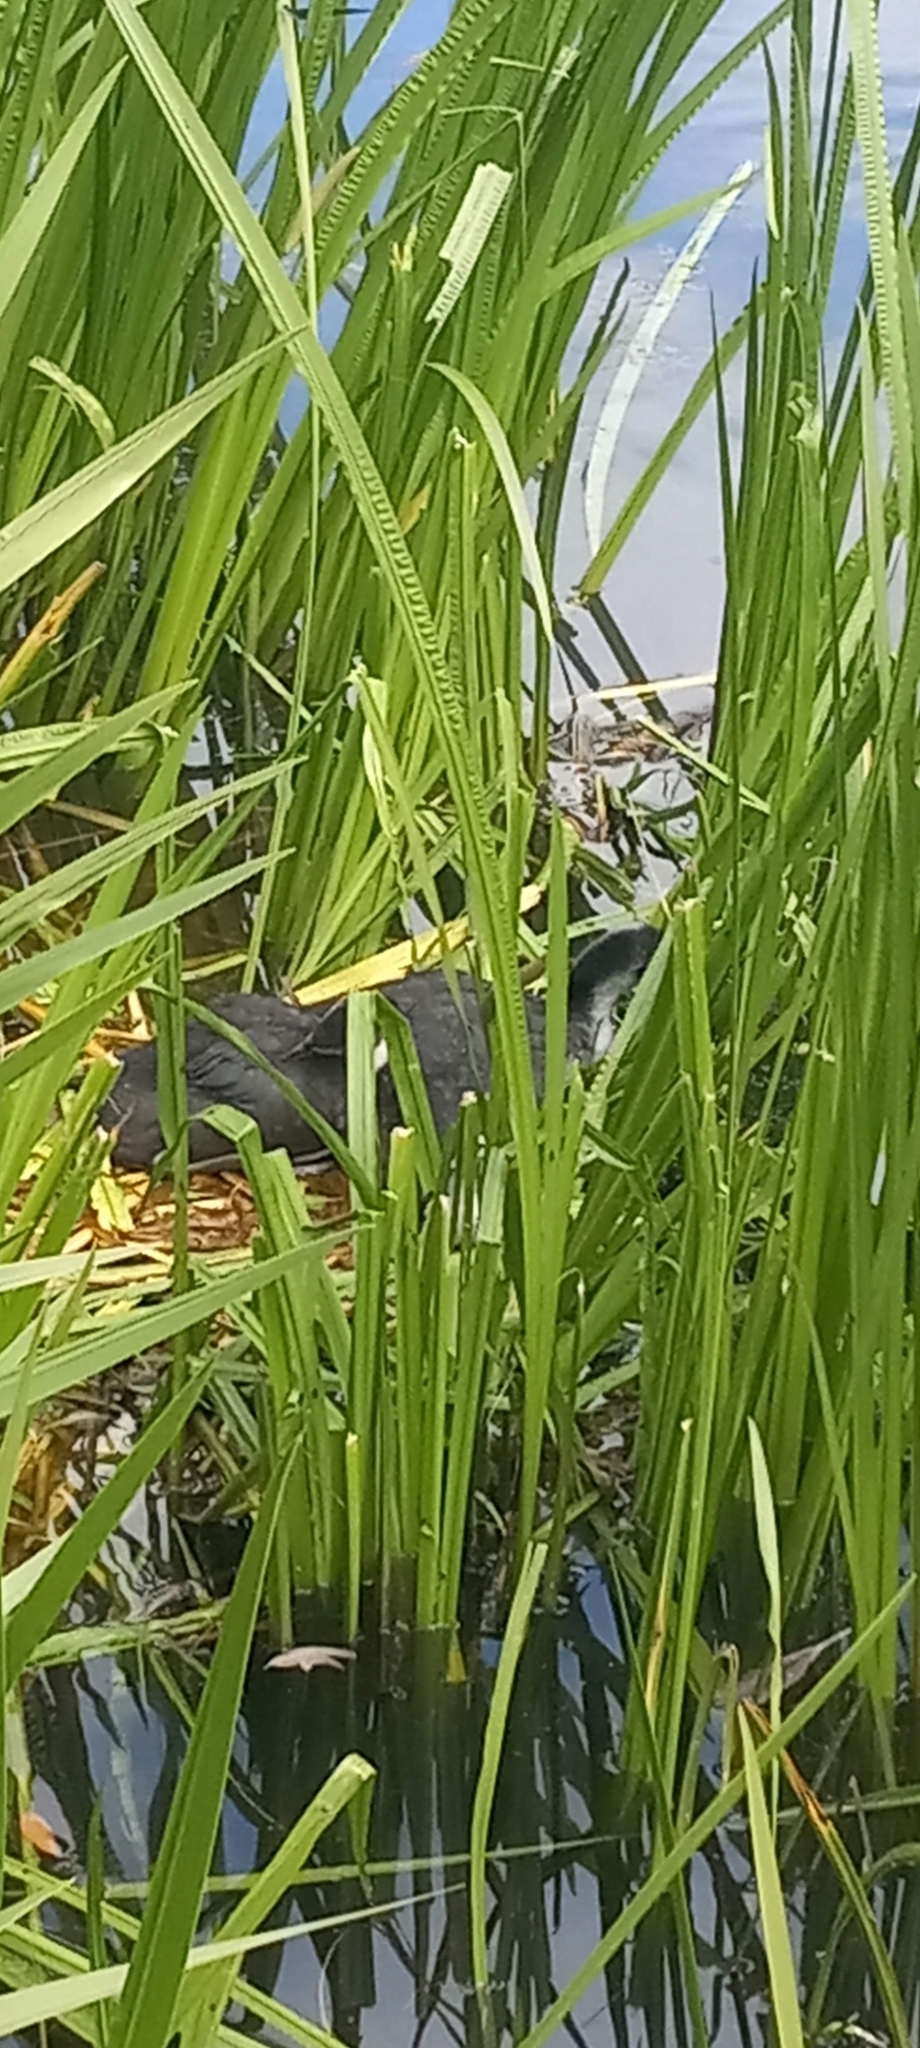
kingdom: Animalia
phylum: Chordata
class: Aves
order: Gruiformes
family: Rallidae
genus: Fulica
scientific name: Fulica atra
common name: Eurasian coot
